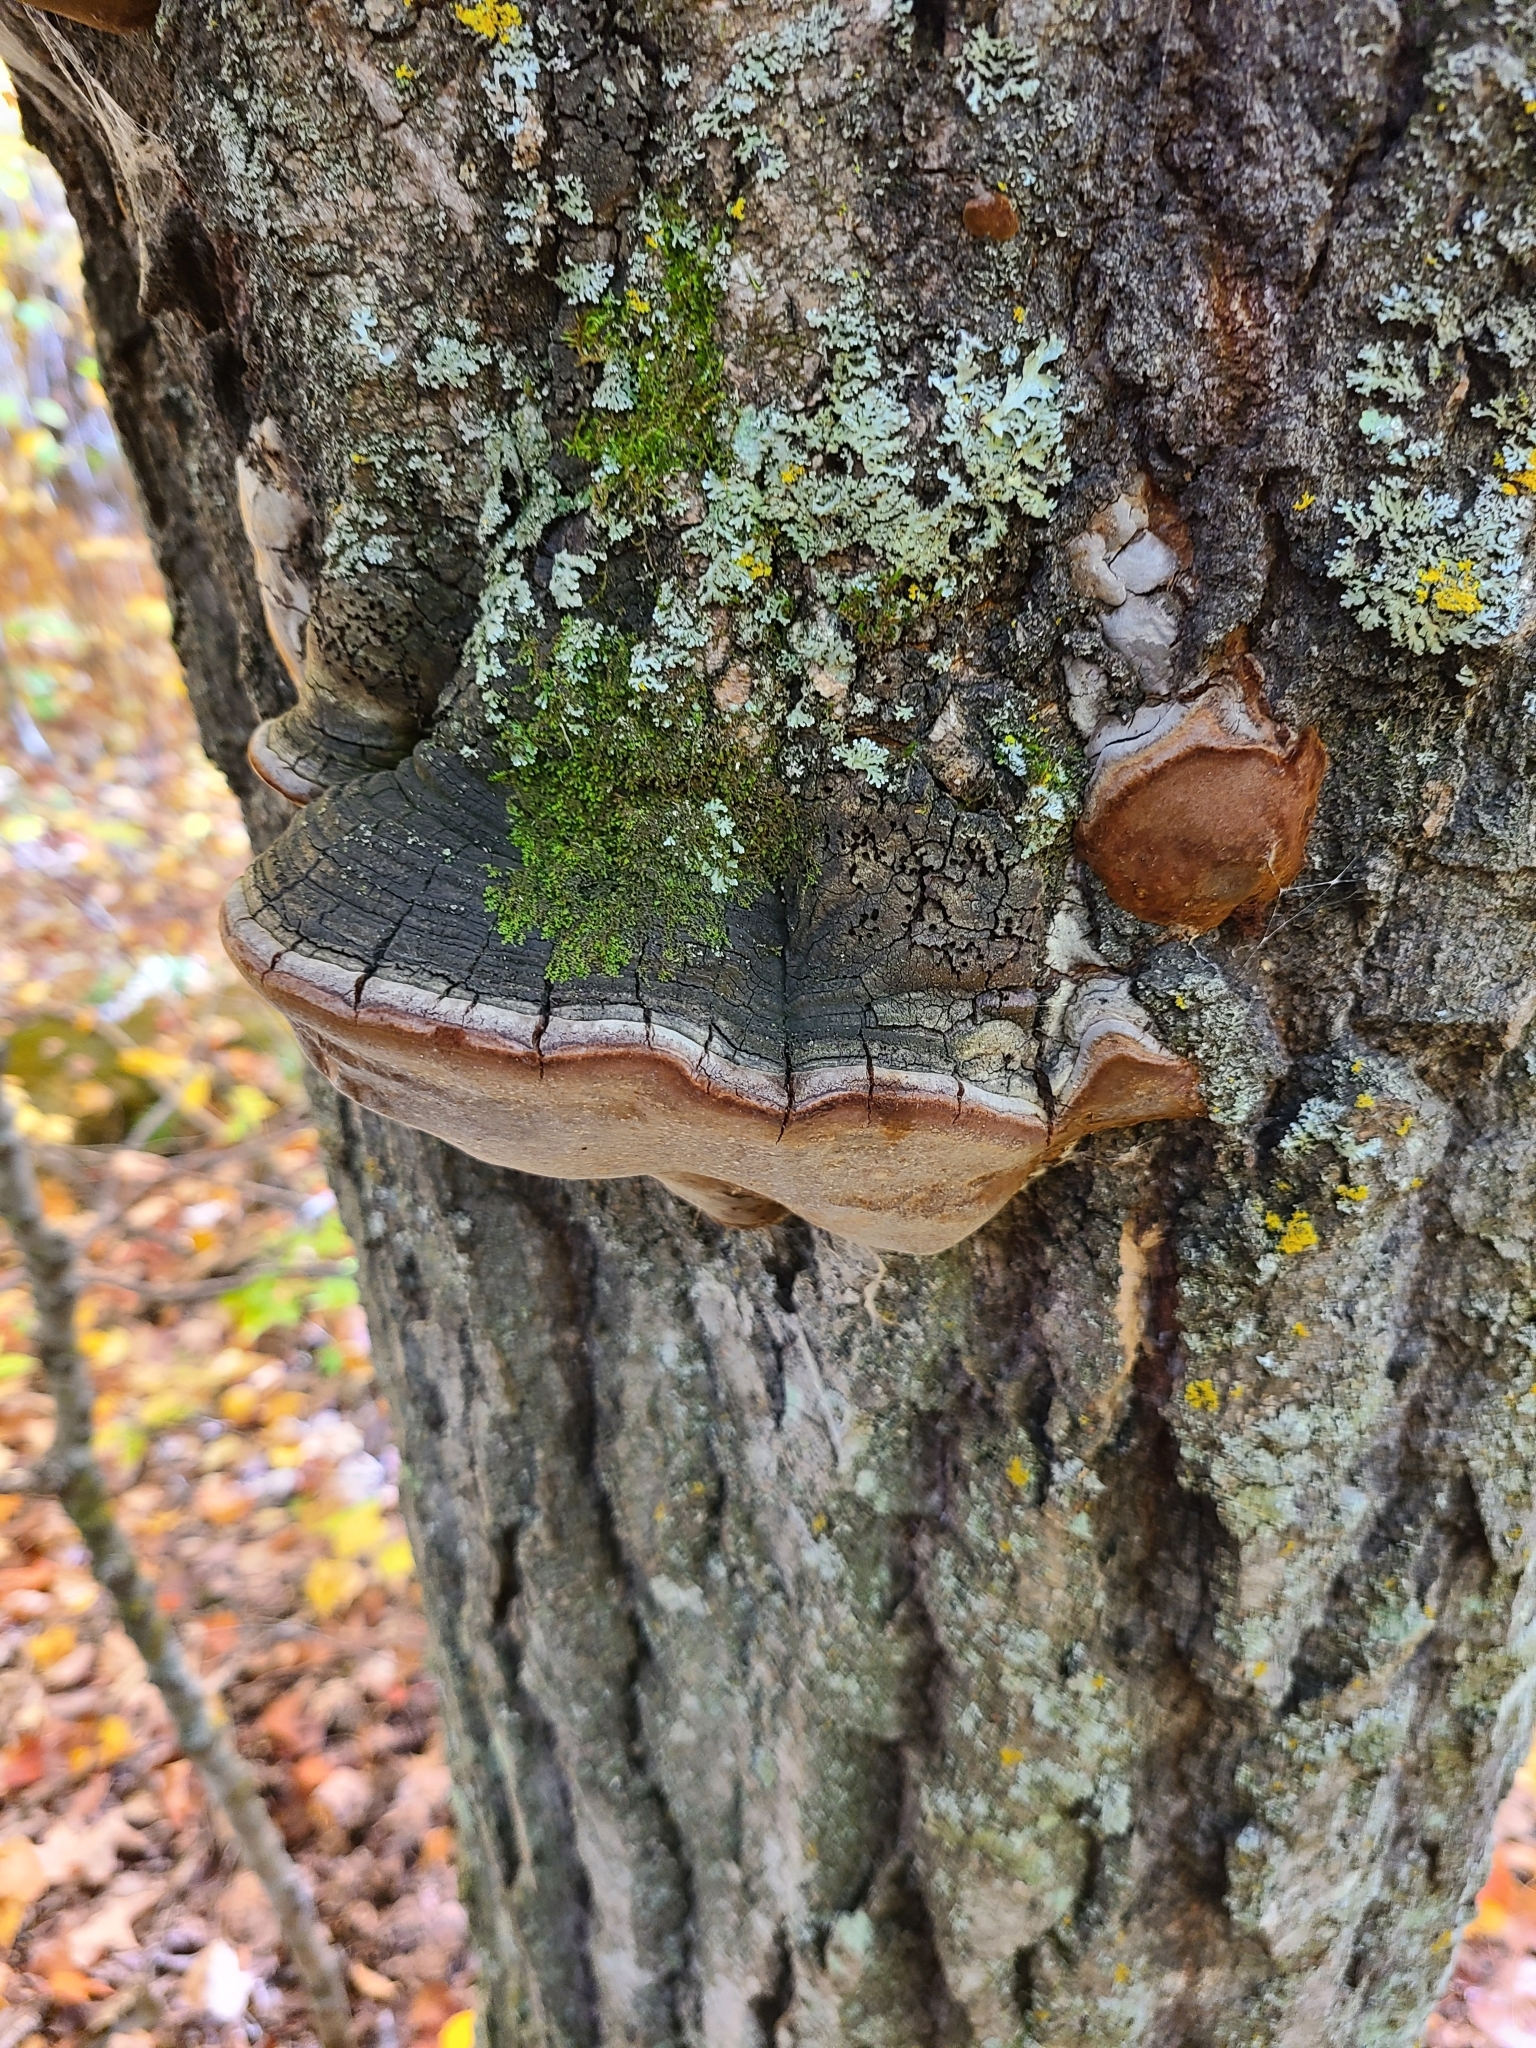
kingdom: Fungi
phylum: Basidiomycota
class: Agaricomycetes
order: Hymenochaetales
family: Hymenochaetaceae
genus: Phellinus
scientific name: Phellinus tremulae
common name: Aspen bracket
